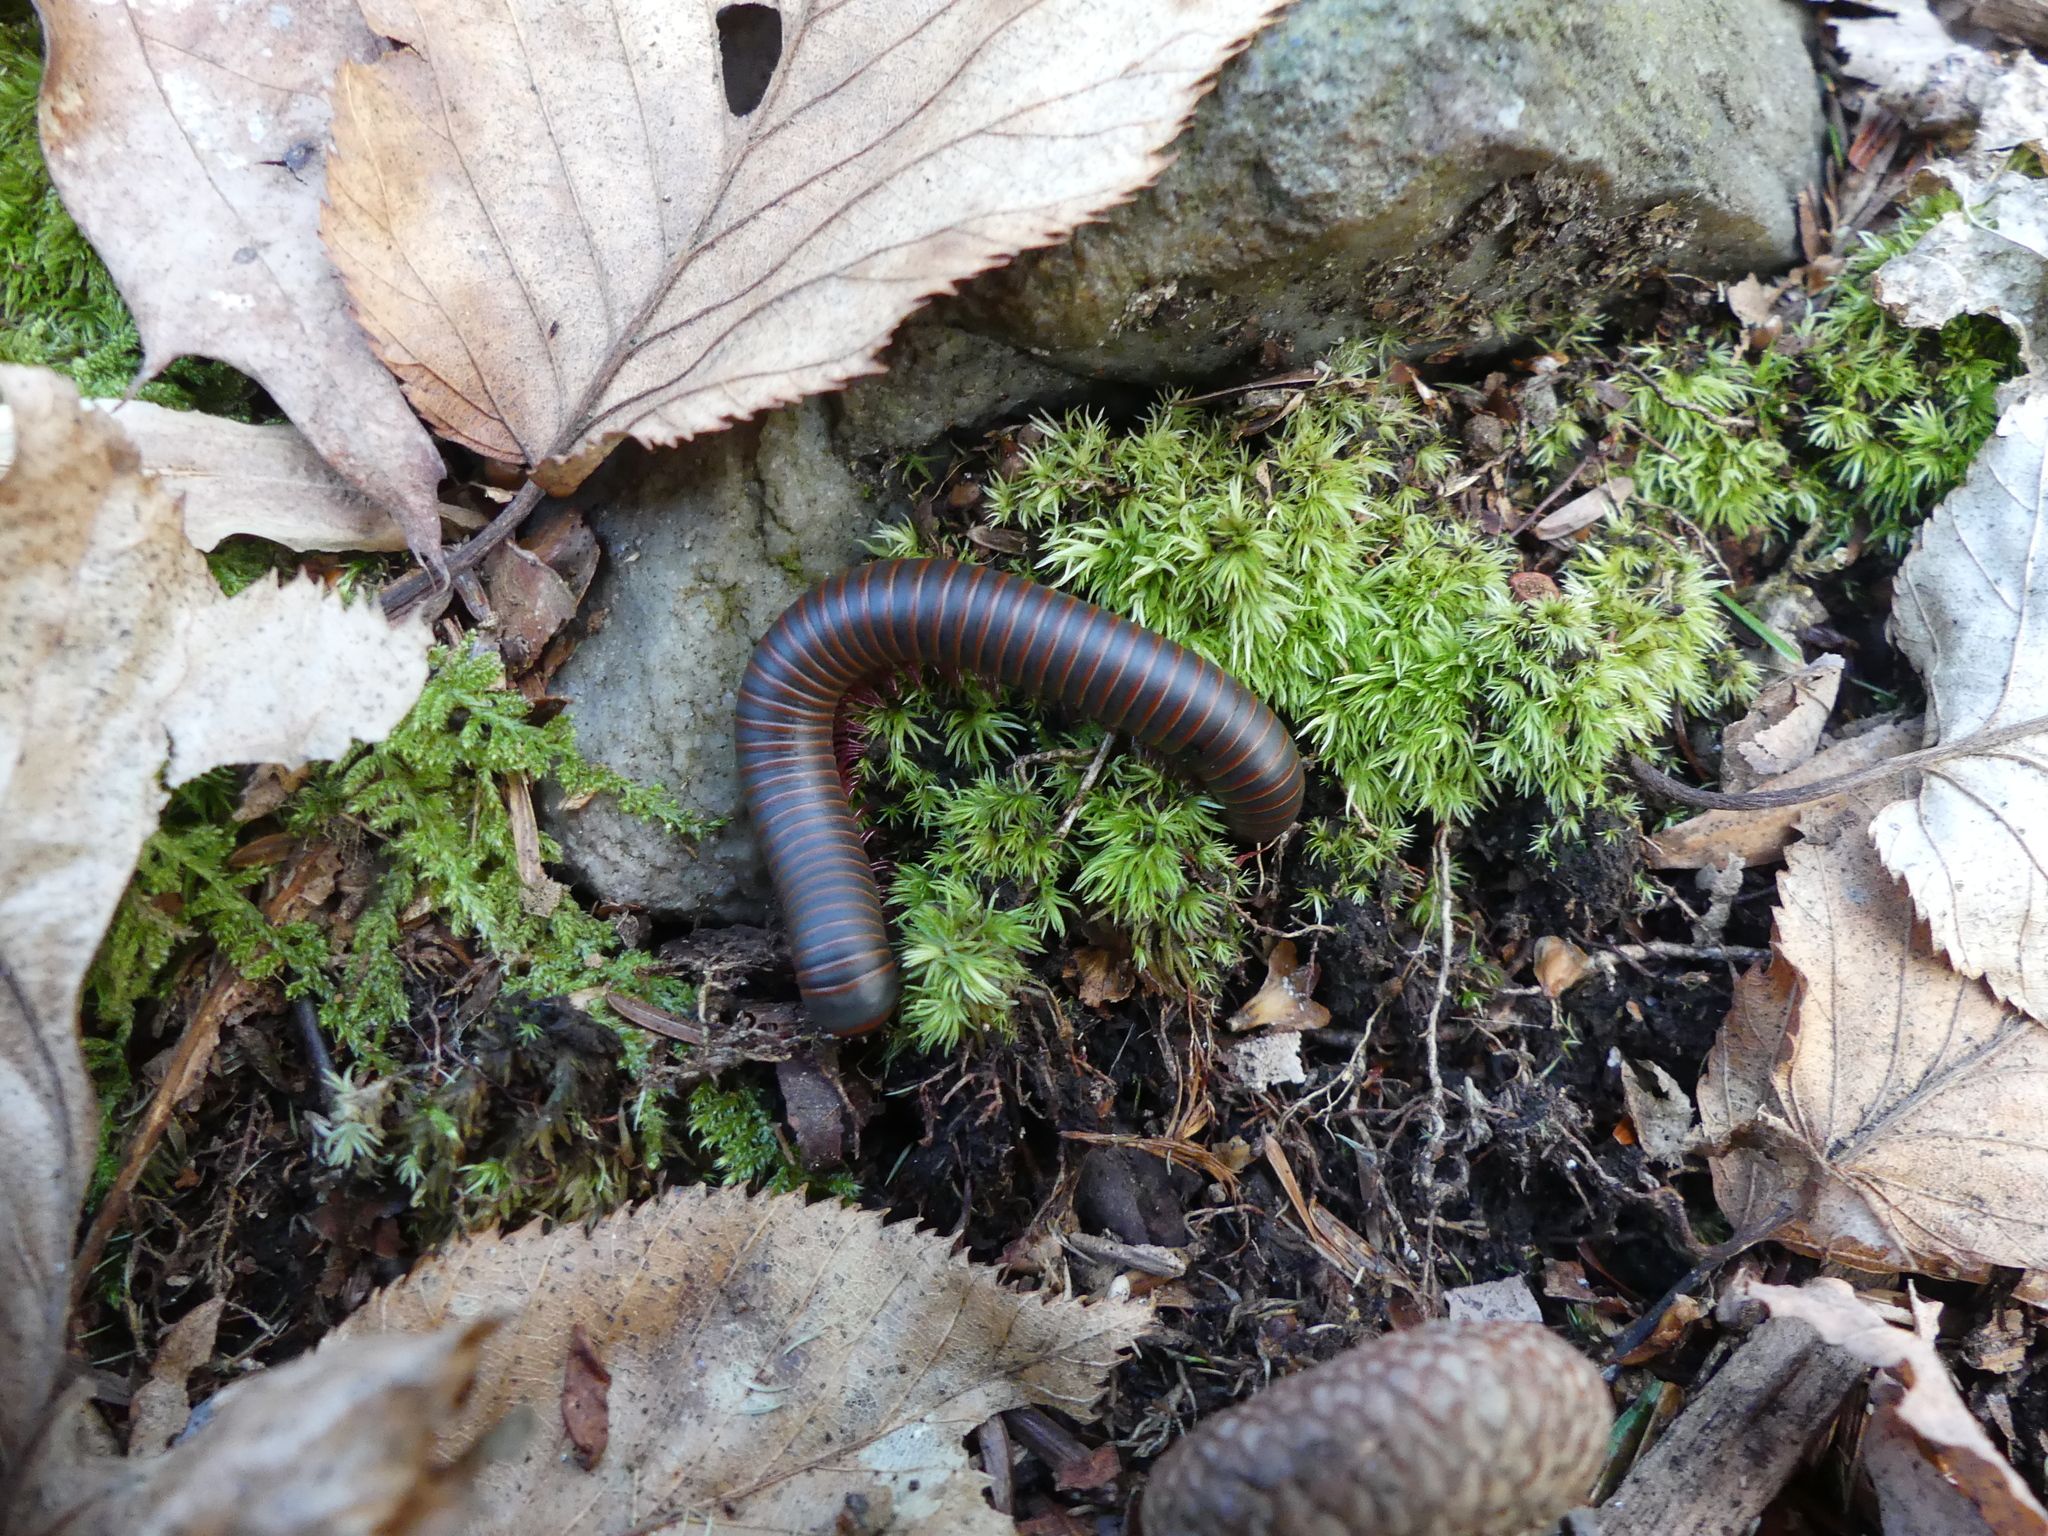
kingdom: Animalia
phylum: Arthropoda
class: Diplopoda
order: Spirobolida
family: Spirobolidae
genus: Narceus
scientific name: Narceus
